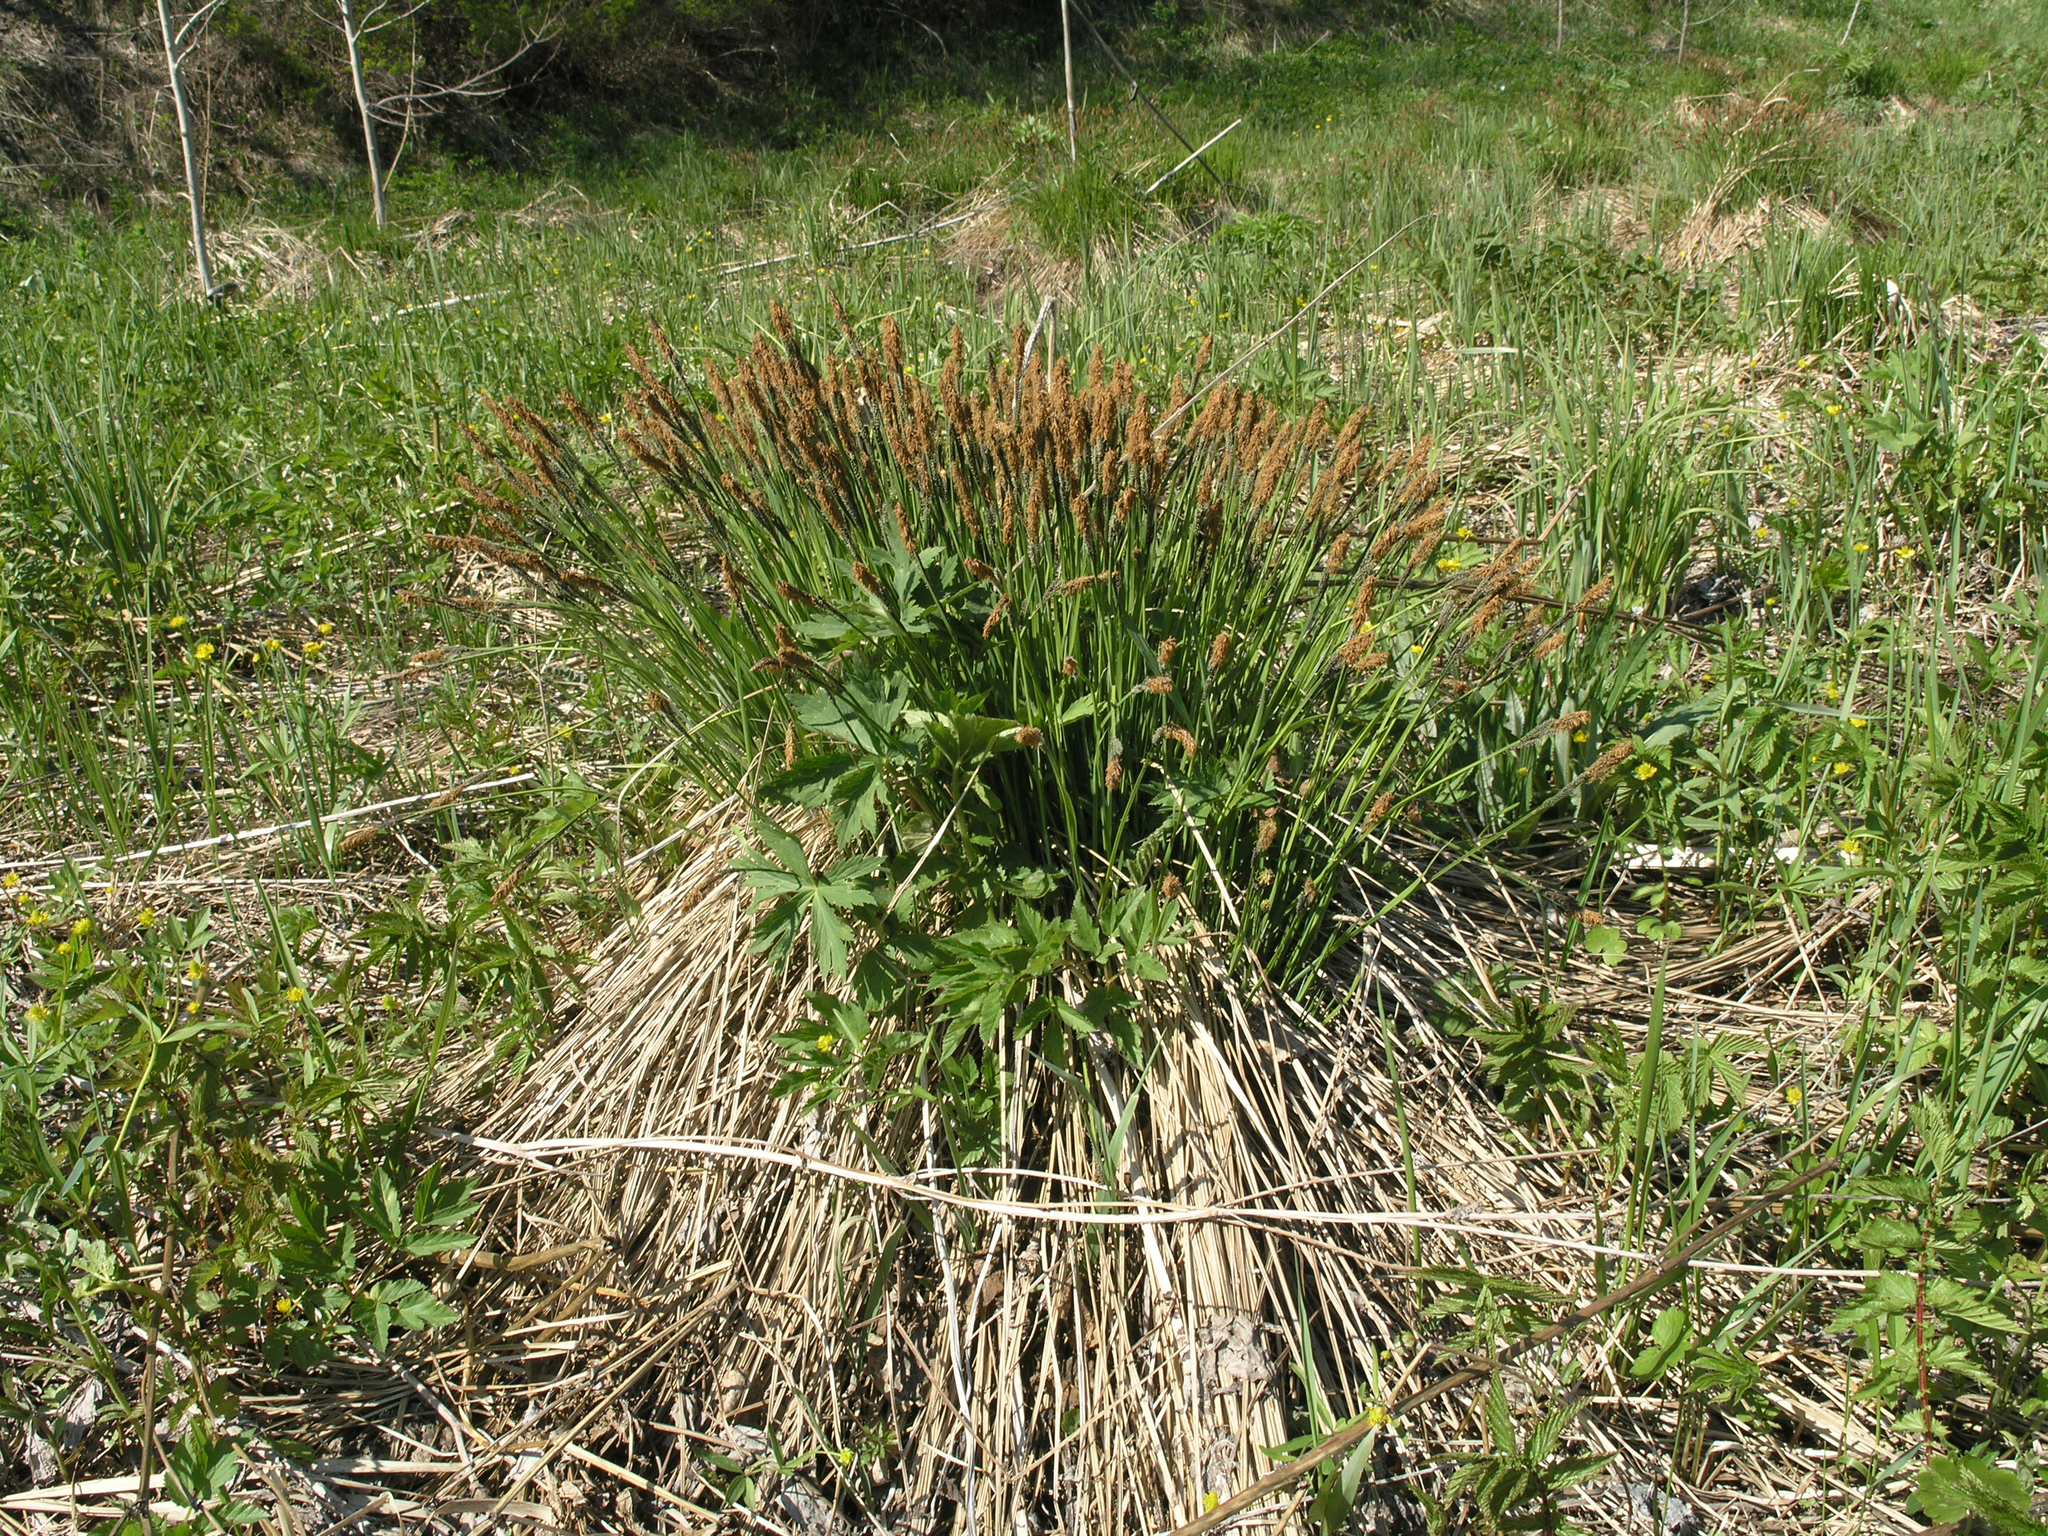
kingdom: Plantae
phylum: Tracheophyta
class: Liliopsida
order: Poales
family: Cyperaceae
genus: Carex
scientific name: Carex cespitosa
